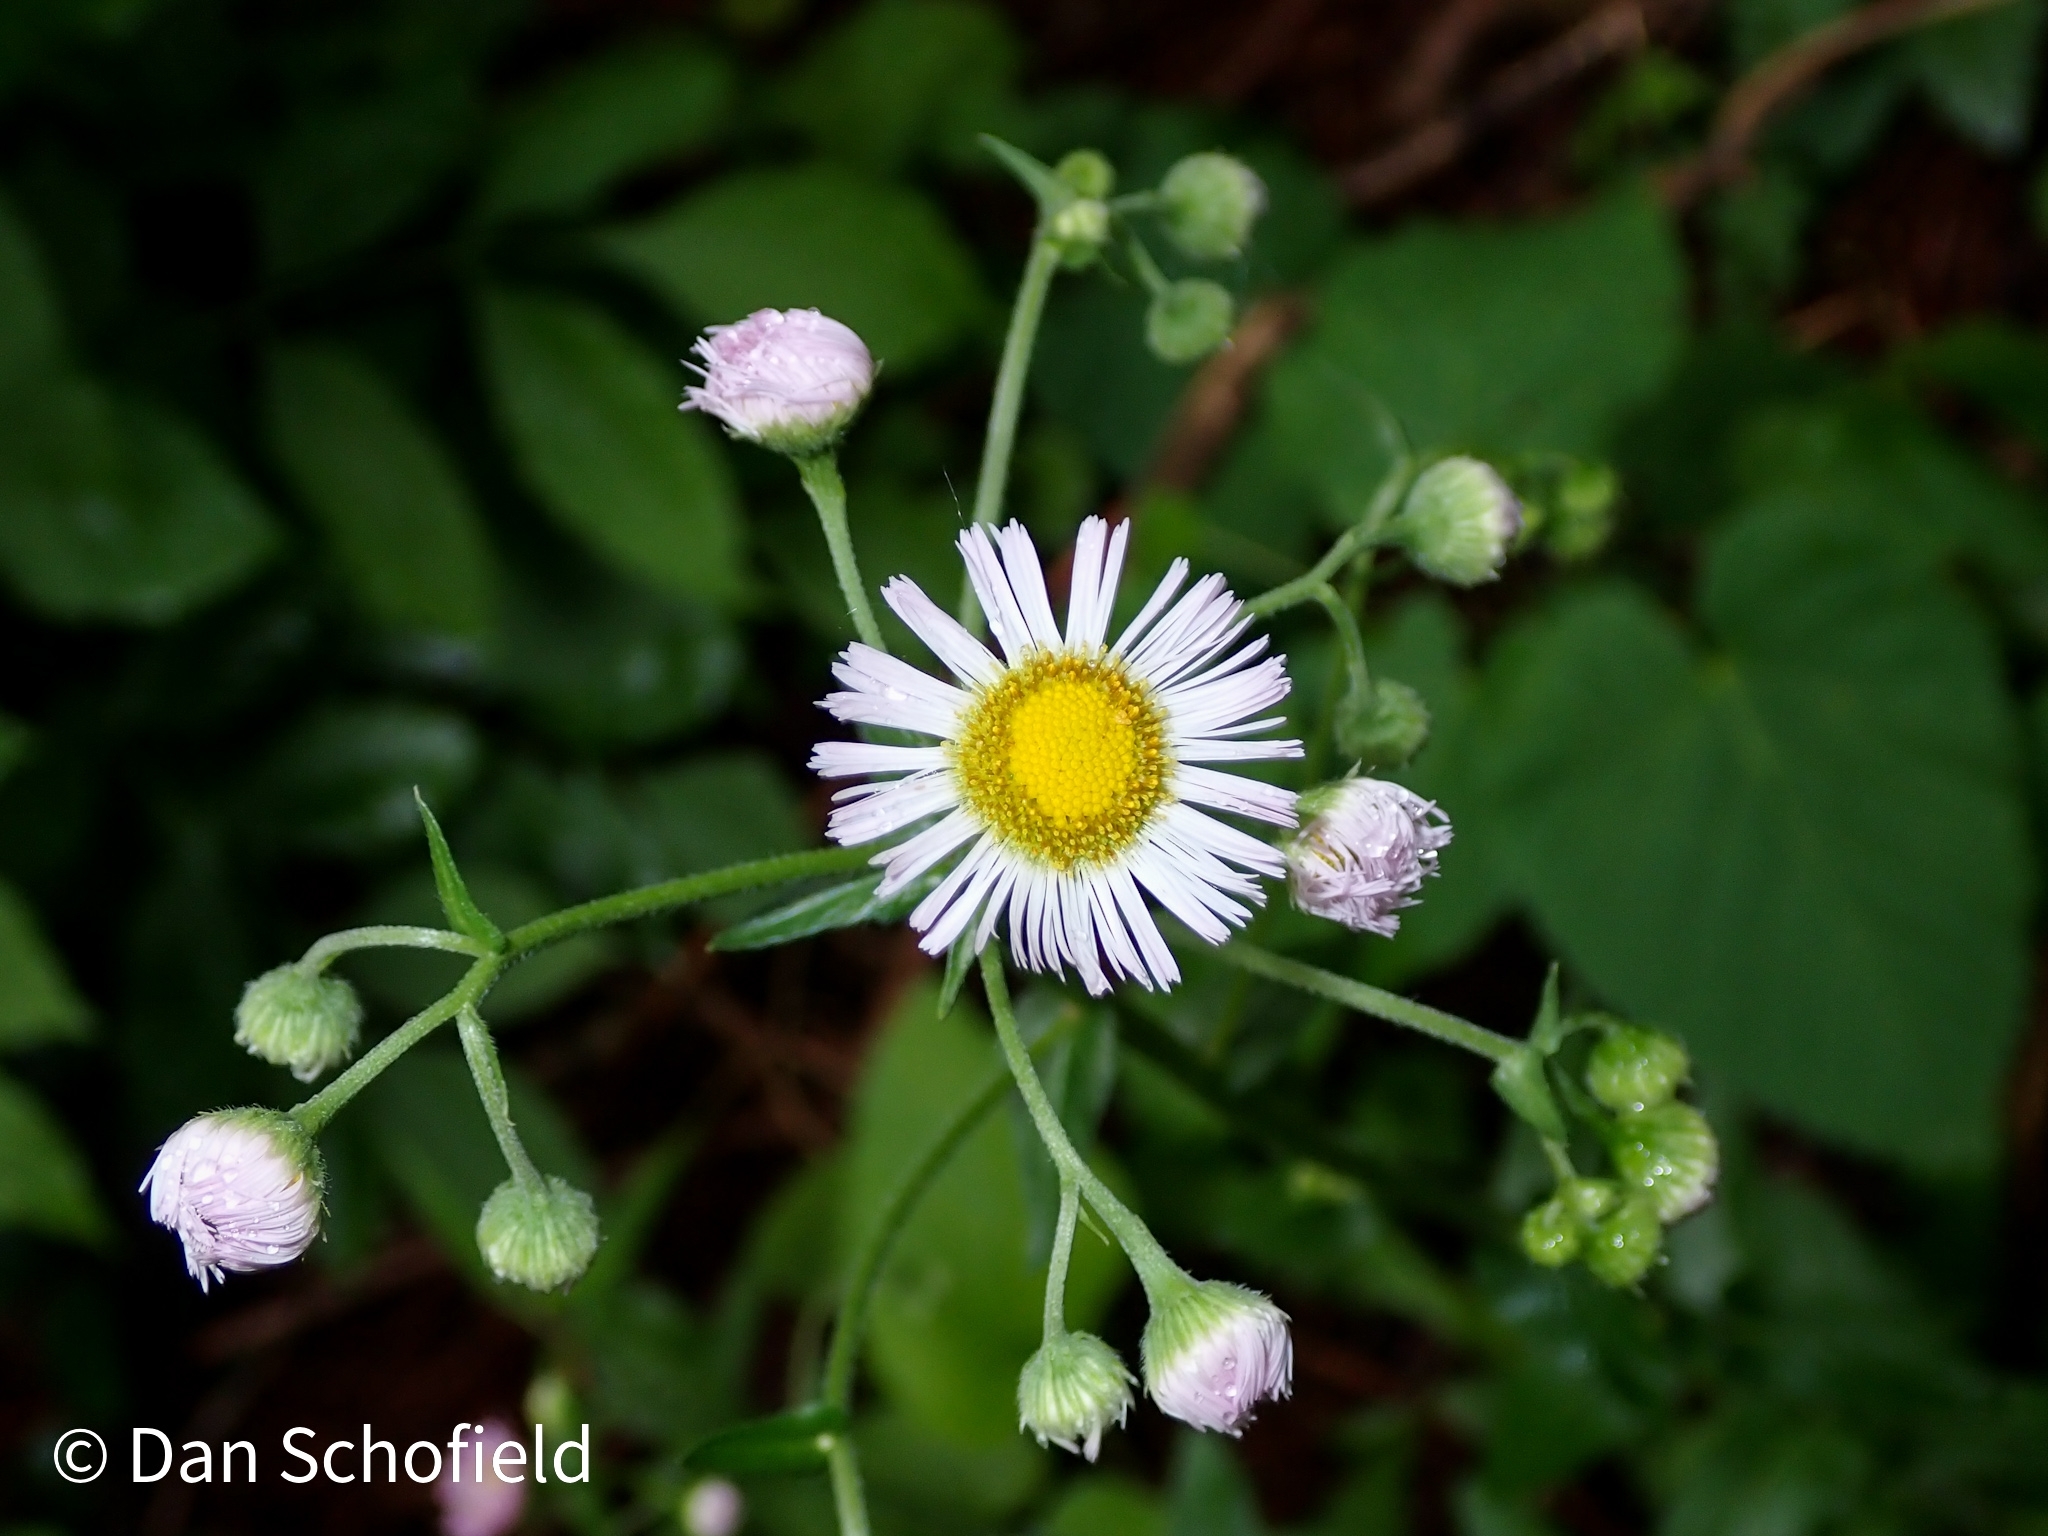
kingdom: Plantae
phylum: Tracheophyta
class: Magnoliopsida
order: Asterales
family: Asteraceae
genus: Erigeron
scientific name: Erigeron philadelphicus
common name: Robin's-plantain
